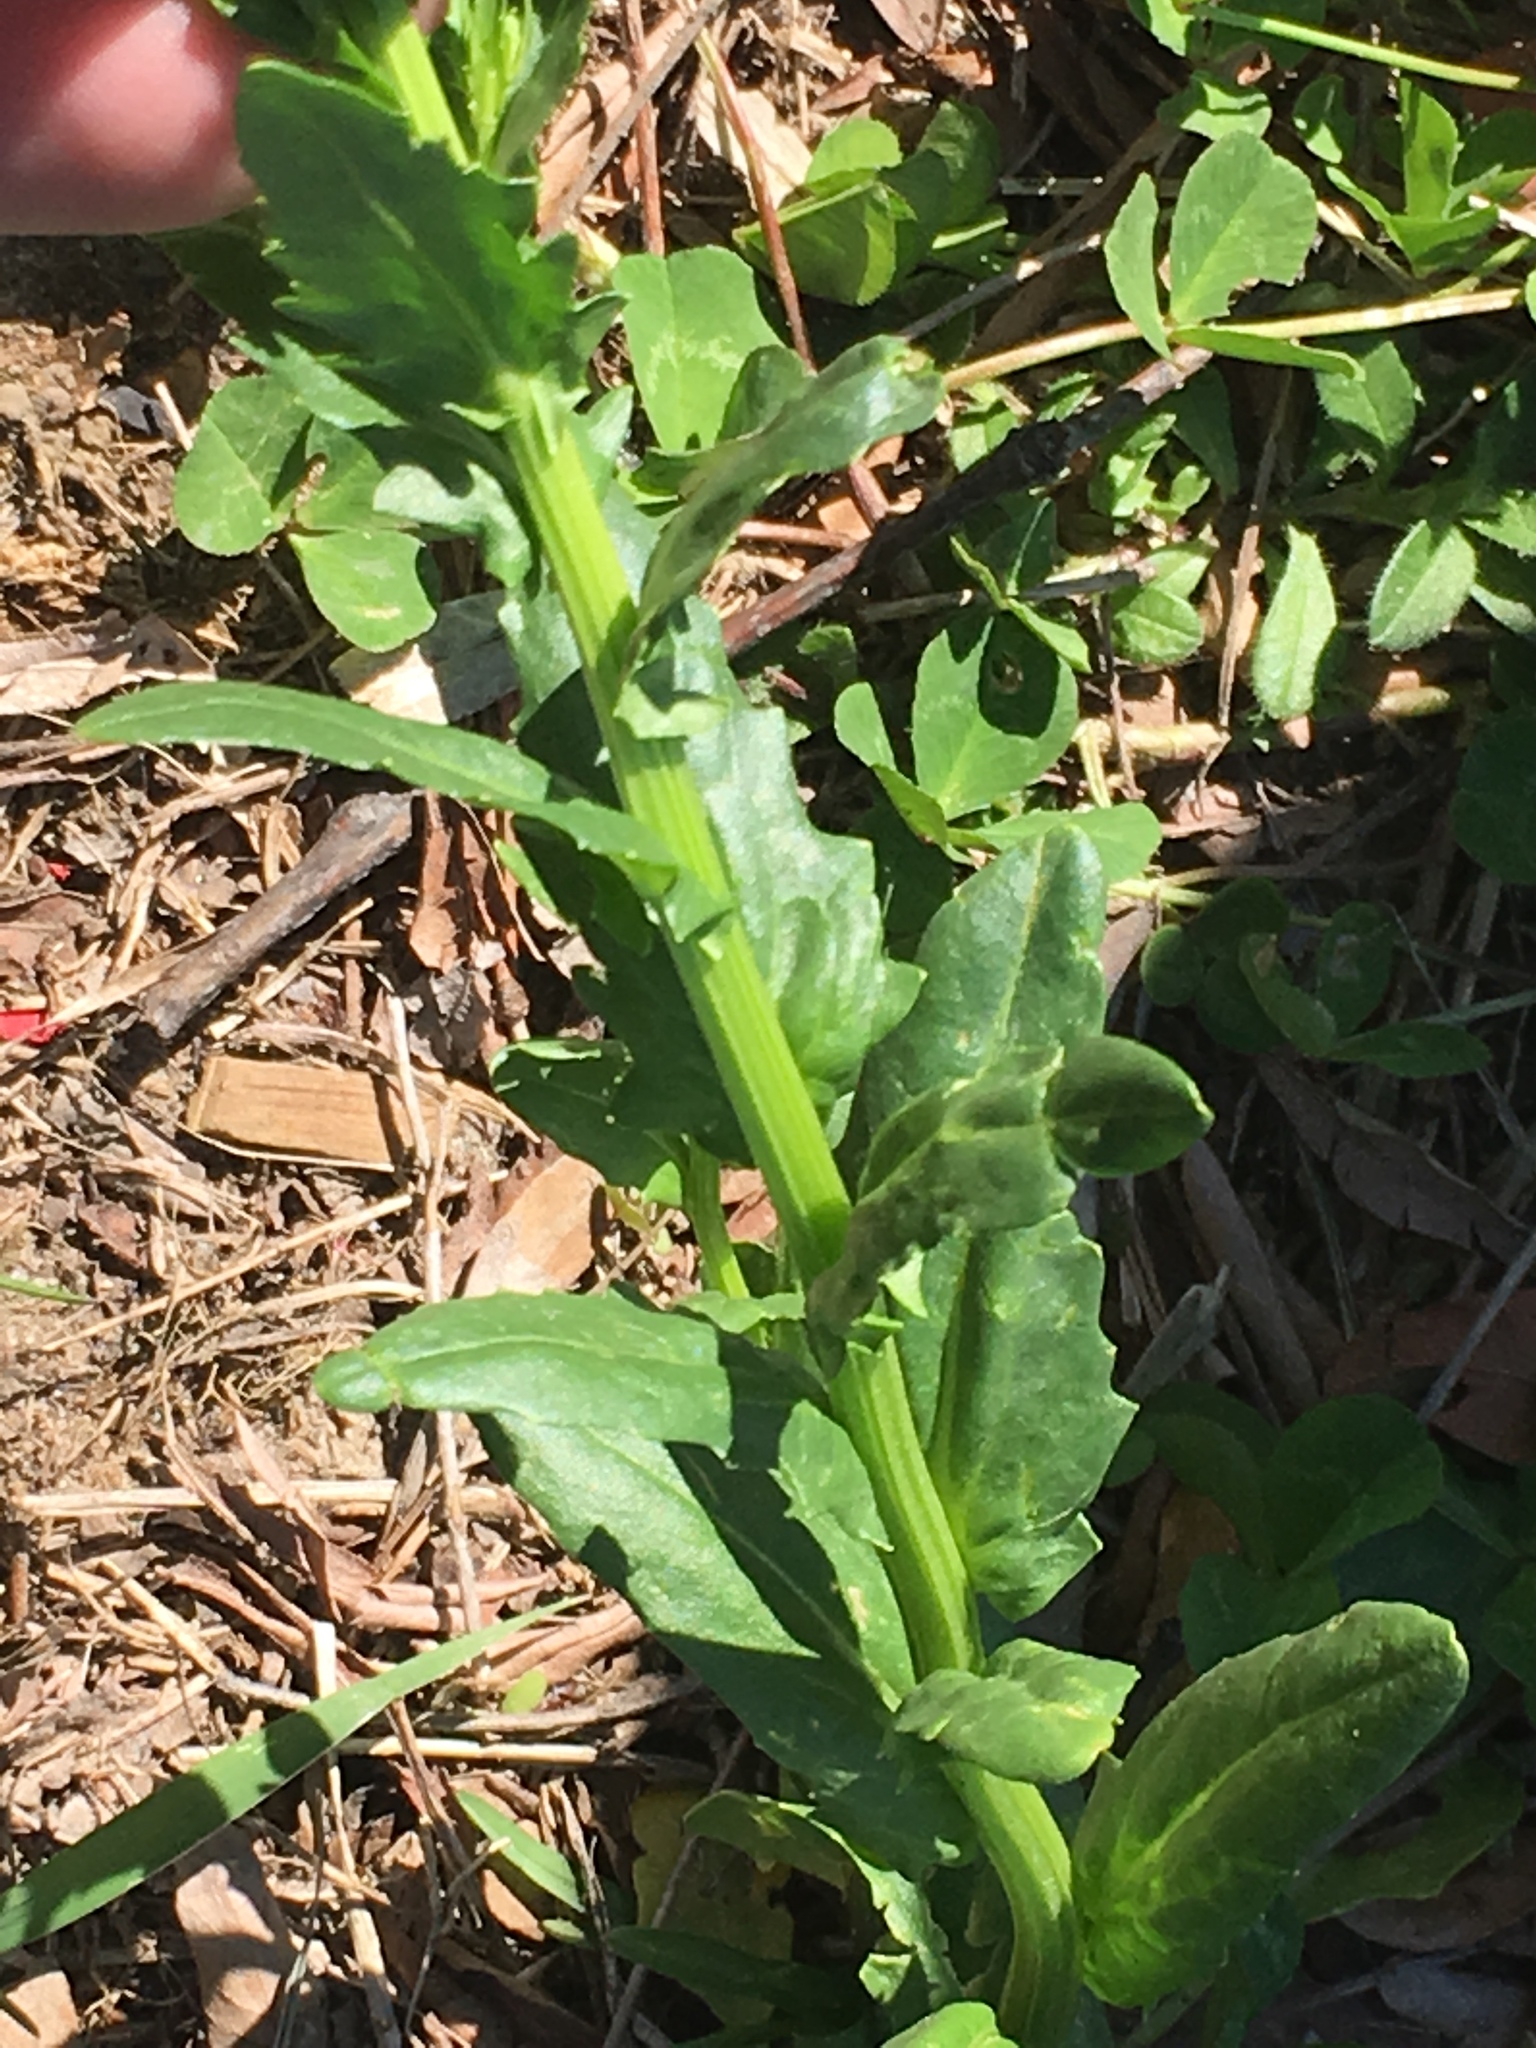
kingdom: Plantae
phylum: Tracheophyta
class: Magnoliopsida
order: Brassicales
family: Brassicaceae
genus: Thlaspi
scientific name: Thlaspi arvense
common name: Field pennycress
